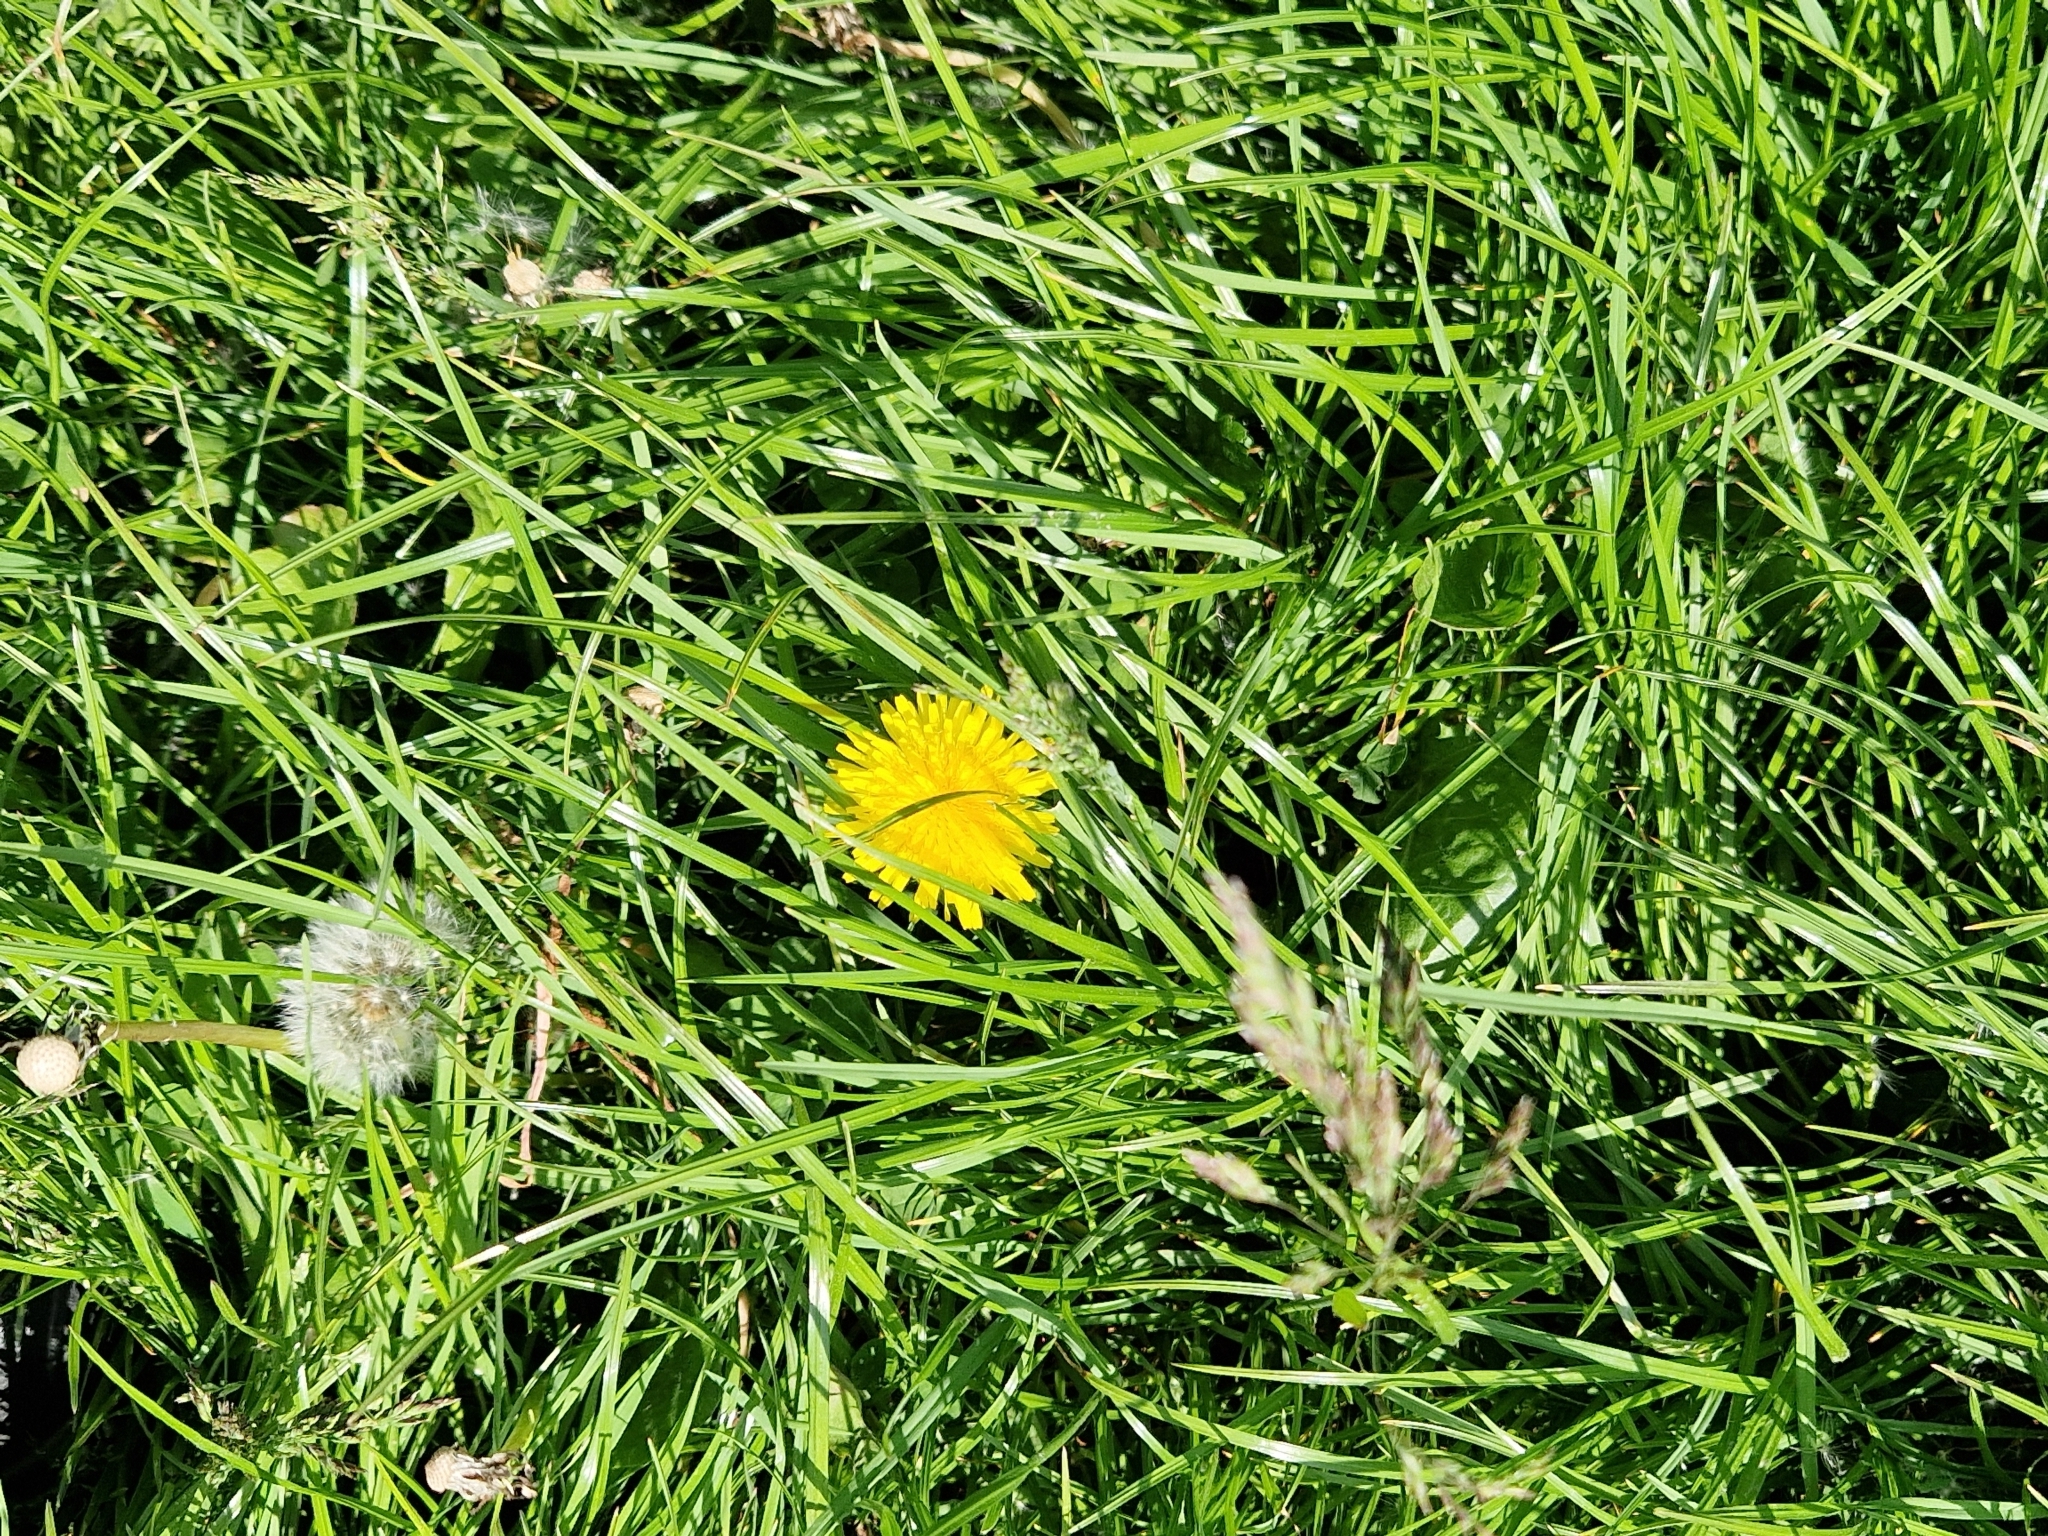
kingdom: Plantae
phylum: Tracheophyta
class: Magnoliopsida
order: Asterales
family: Asteraceae
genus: Taraxacum
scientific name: Taraxacum officinale
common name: Common dandelion
